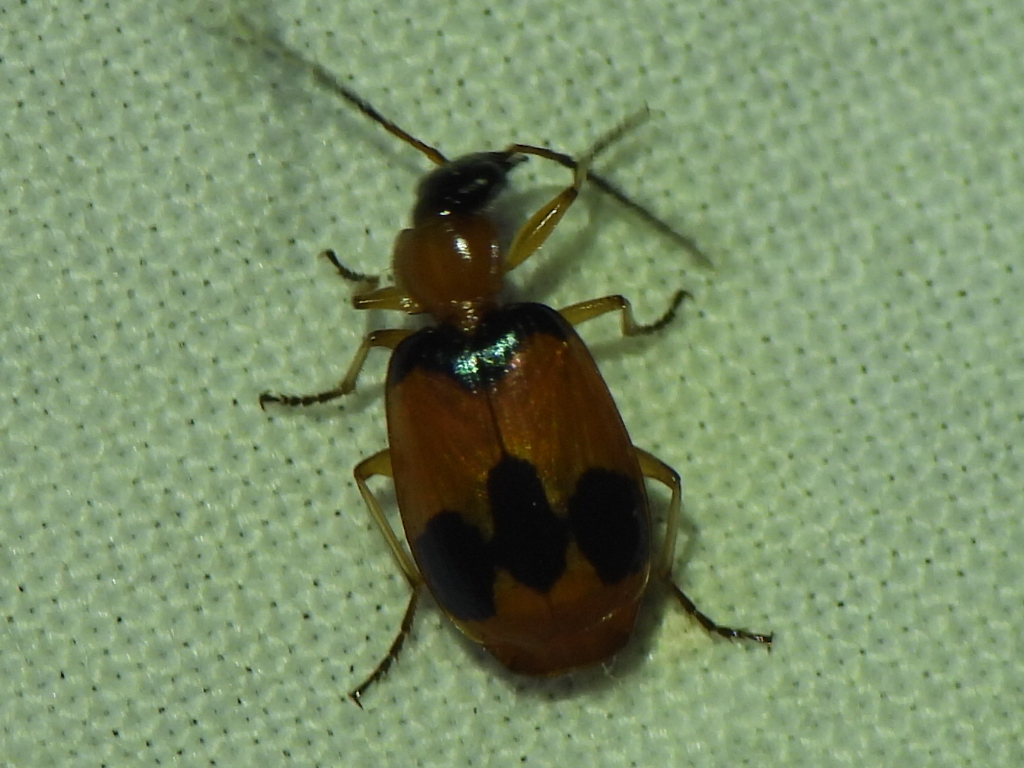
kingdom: Animalia
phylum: Arthropoda
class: Insecta
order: Coleoptera
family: Carabidae
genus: Lebia
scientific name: Lebia pulchella
